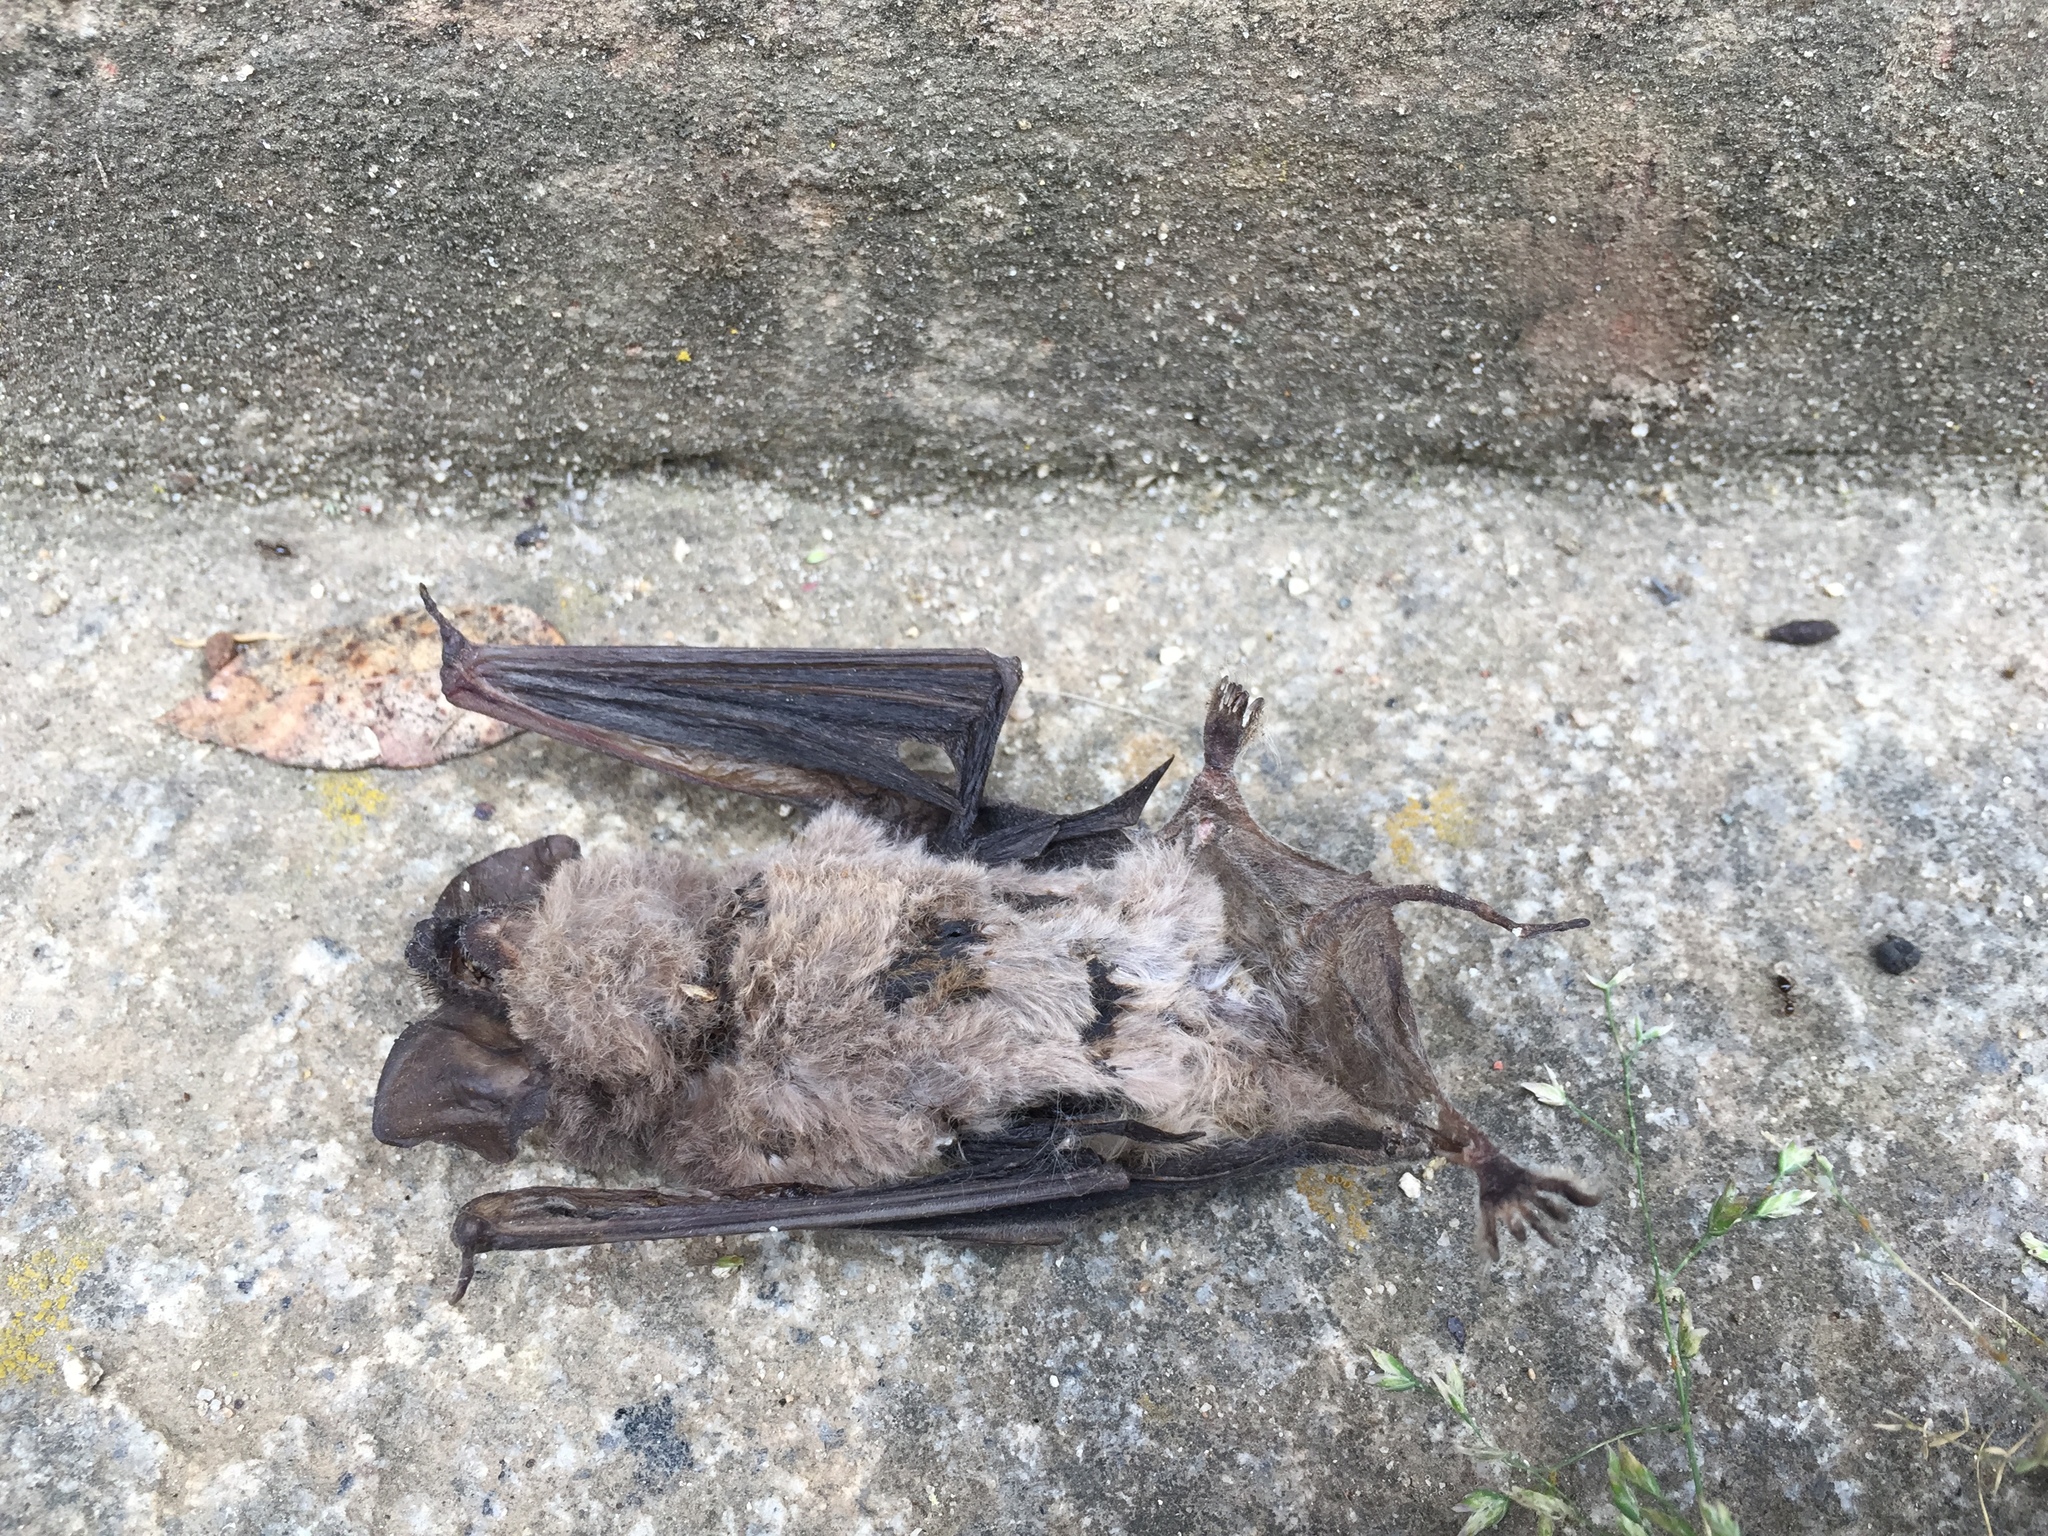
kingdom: Animalia
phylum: Chordata
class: Mammalia
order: Chiroptera
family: Molossidae
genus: Tadarida
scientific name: Tadarida brasiliensis
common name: Mexican free-tailed bat
